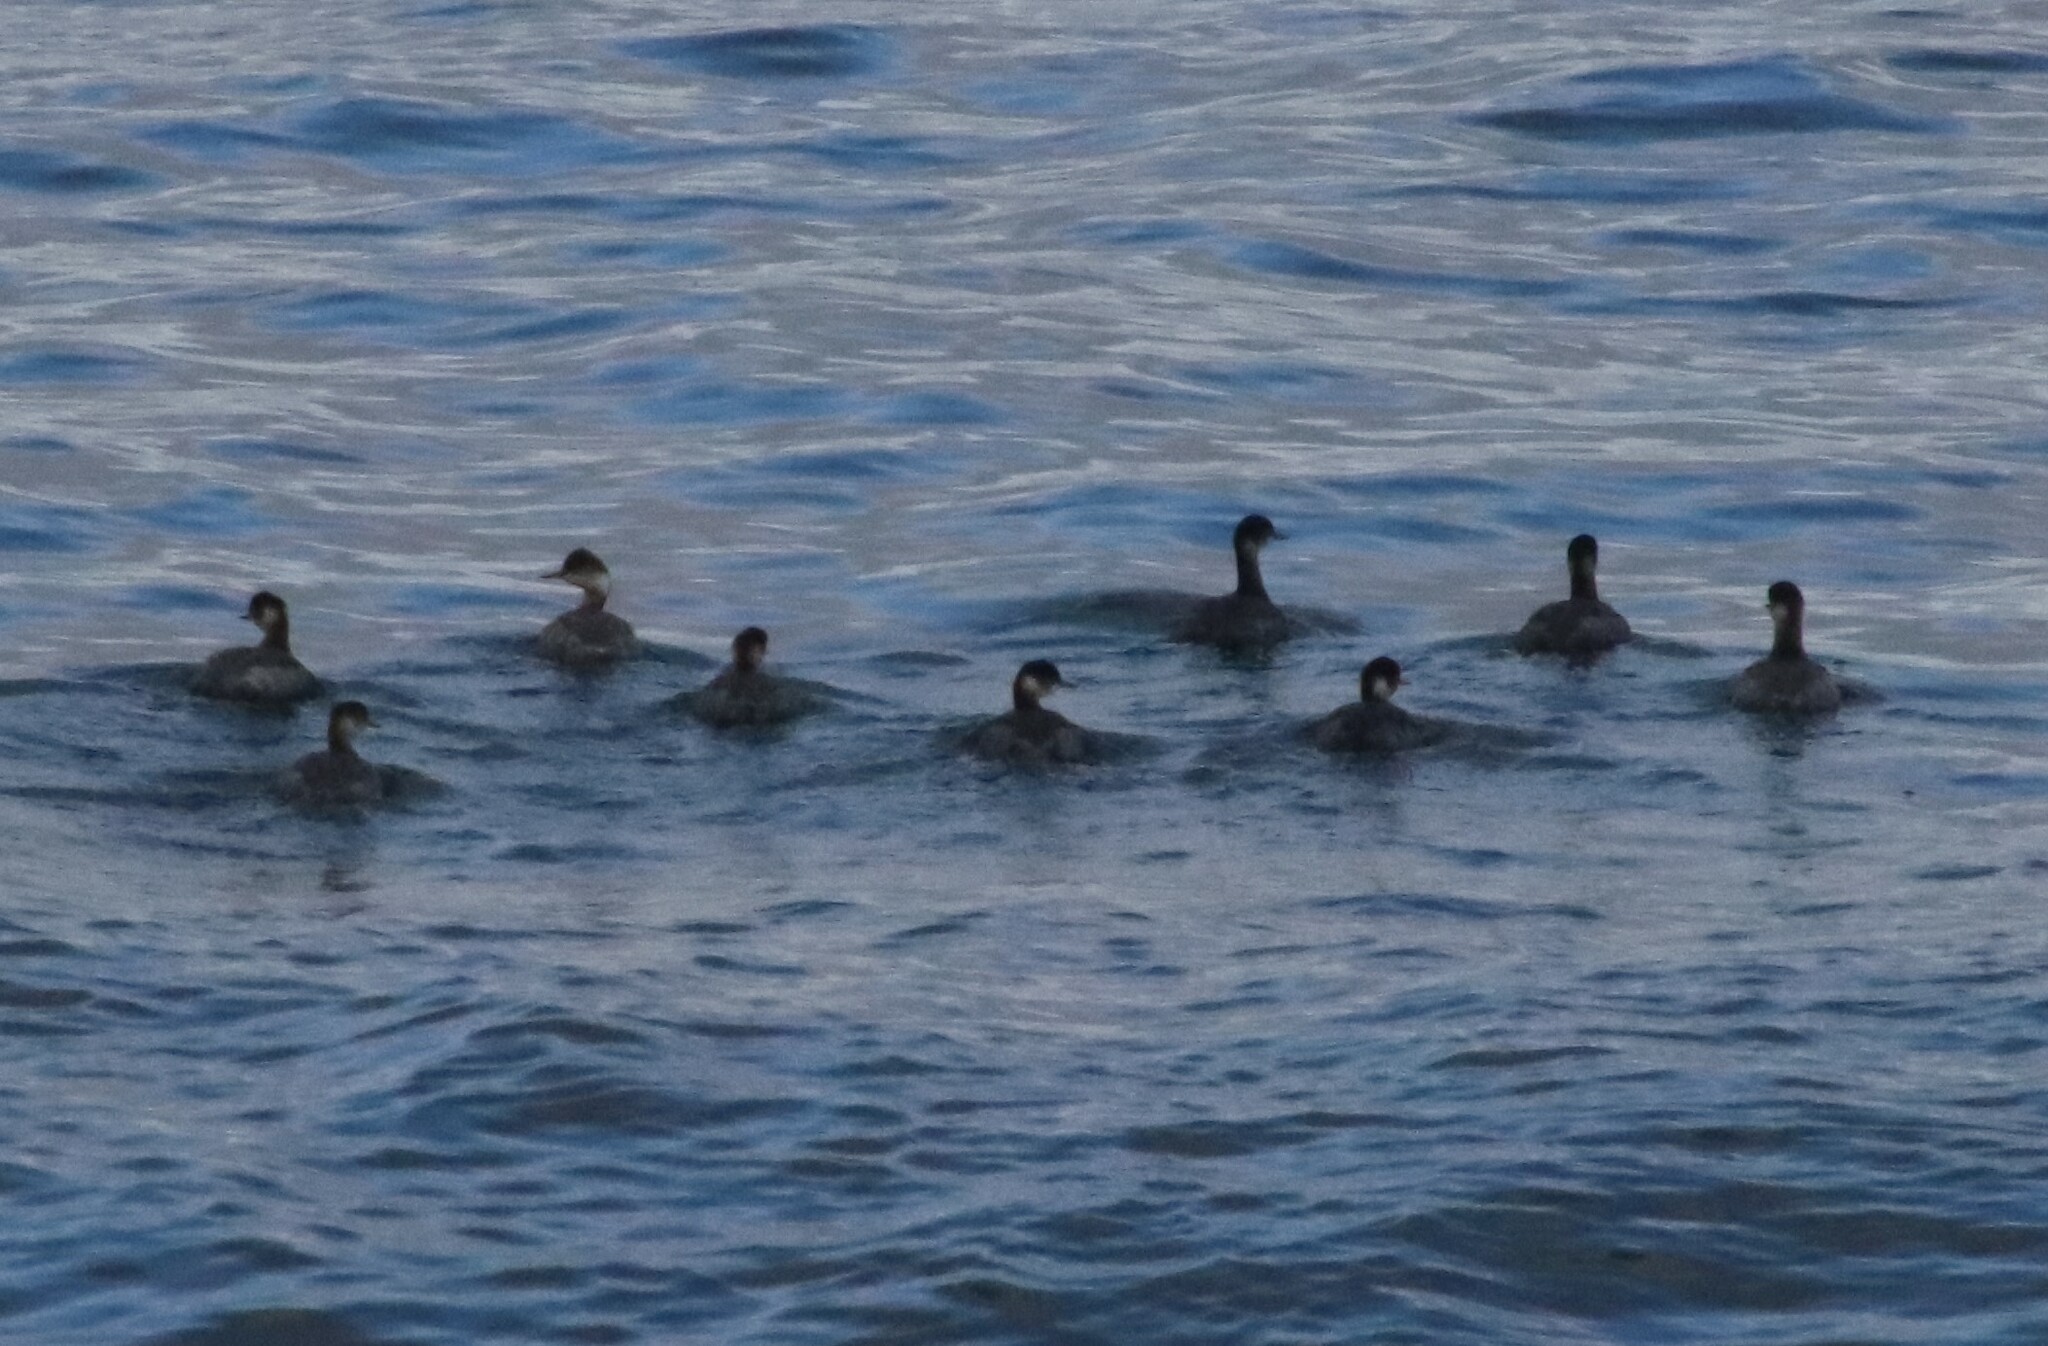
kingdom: Animalia
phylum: Chordata
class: Aves
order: Podicipediformes
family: Podicipedidae
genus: Podiceps
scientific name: Podiceps nigricollis
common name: Black-necked grebe
